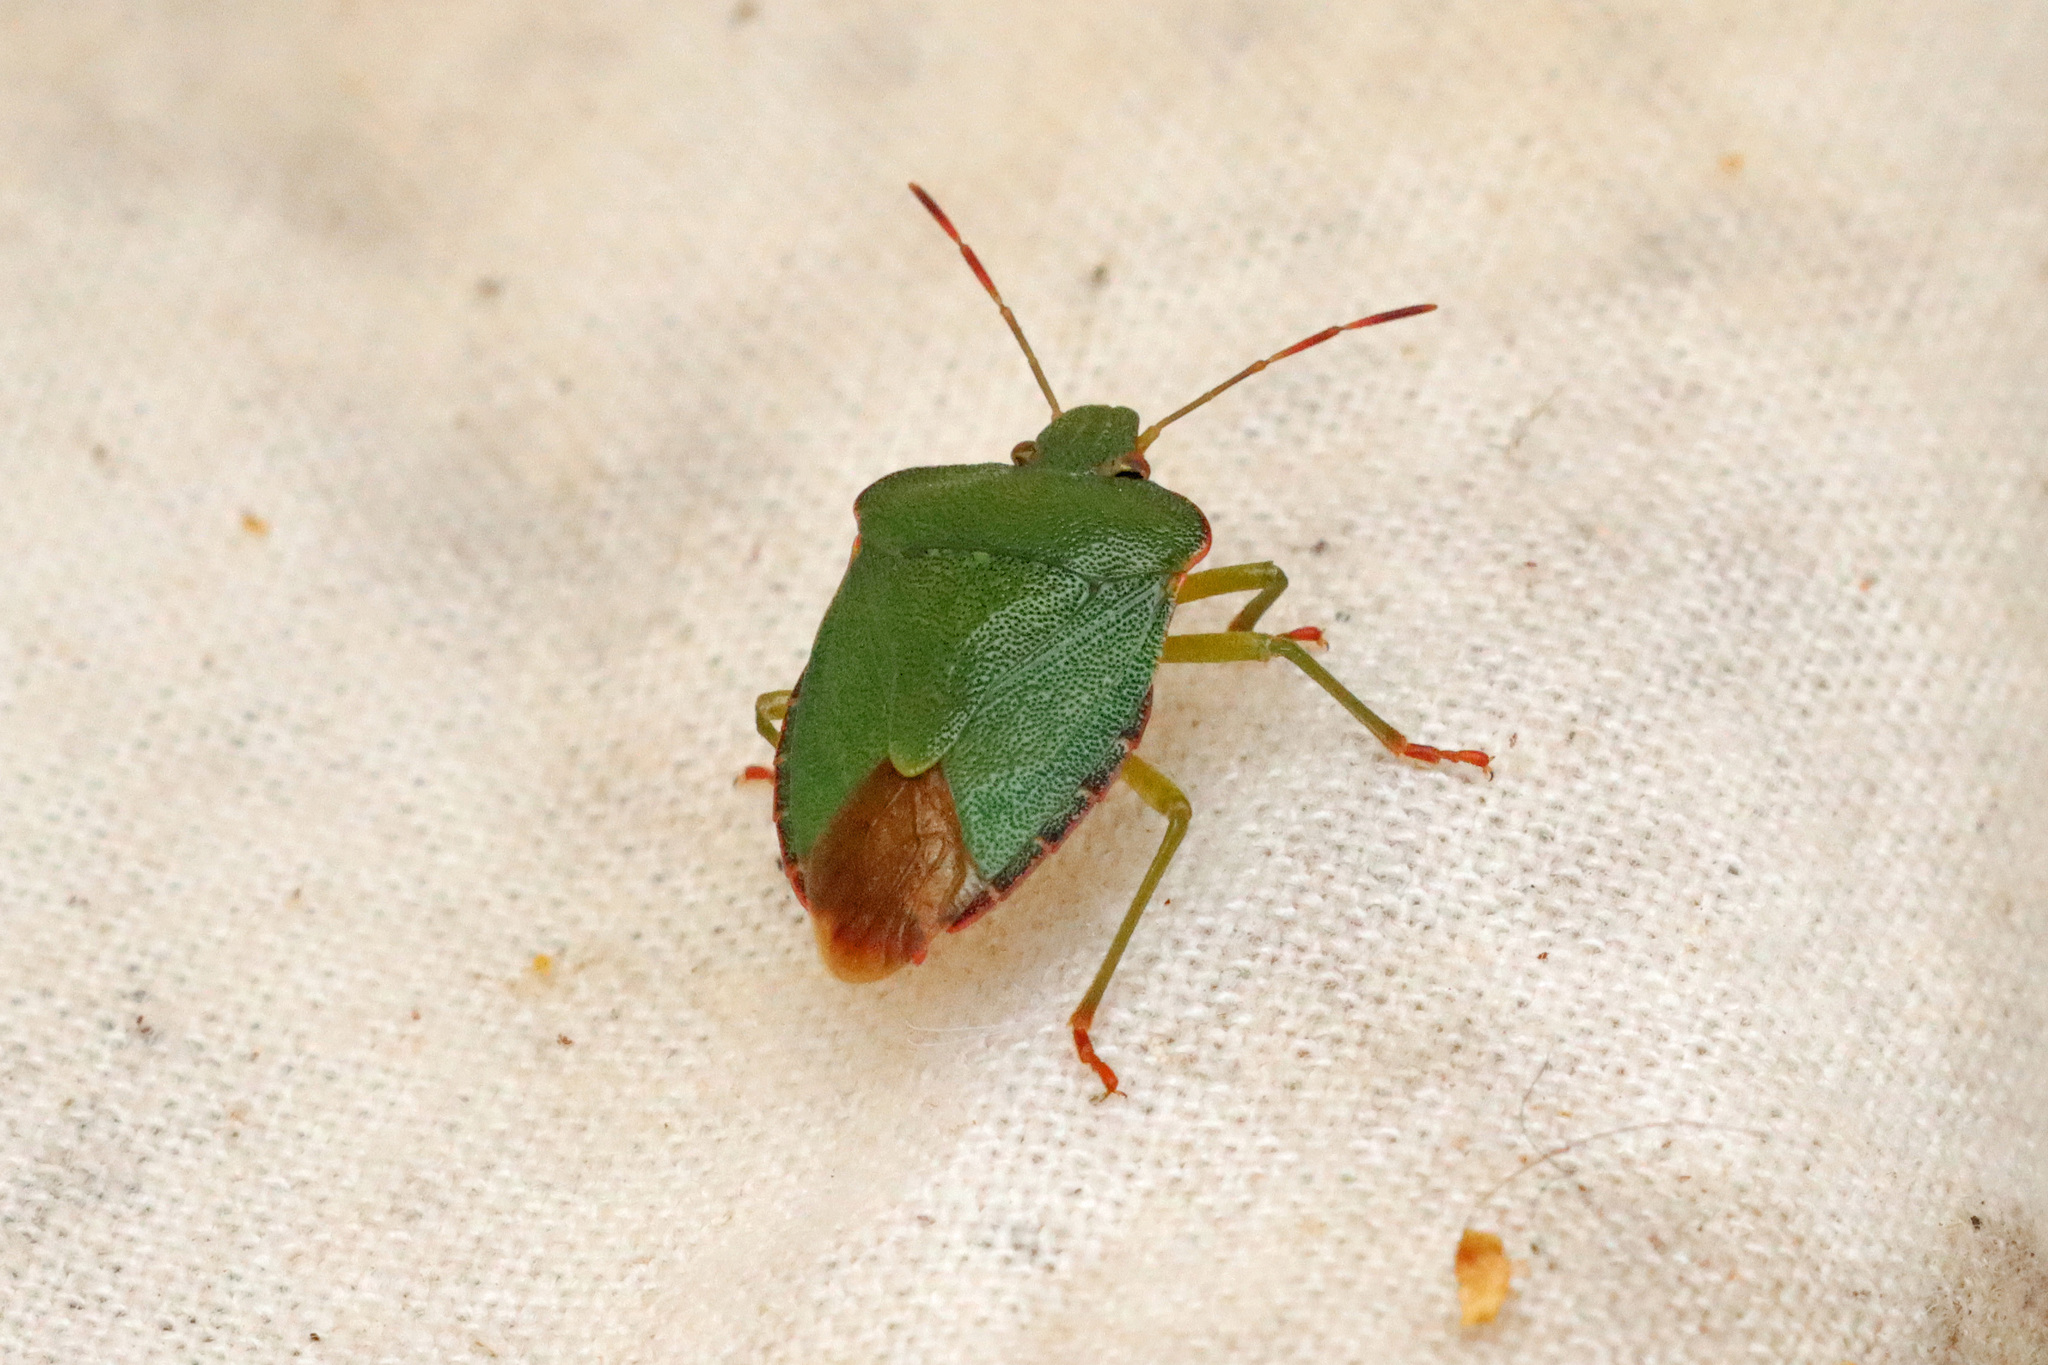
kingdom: Animalia
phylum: Arthropoda
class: Insecta
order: Hemiptera
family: Pentatomidae
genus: Palomena
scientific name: Palomena prasina
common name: Green shieldbug
